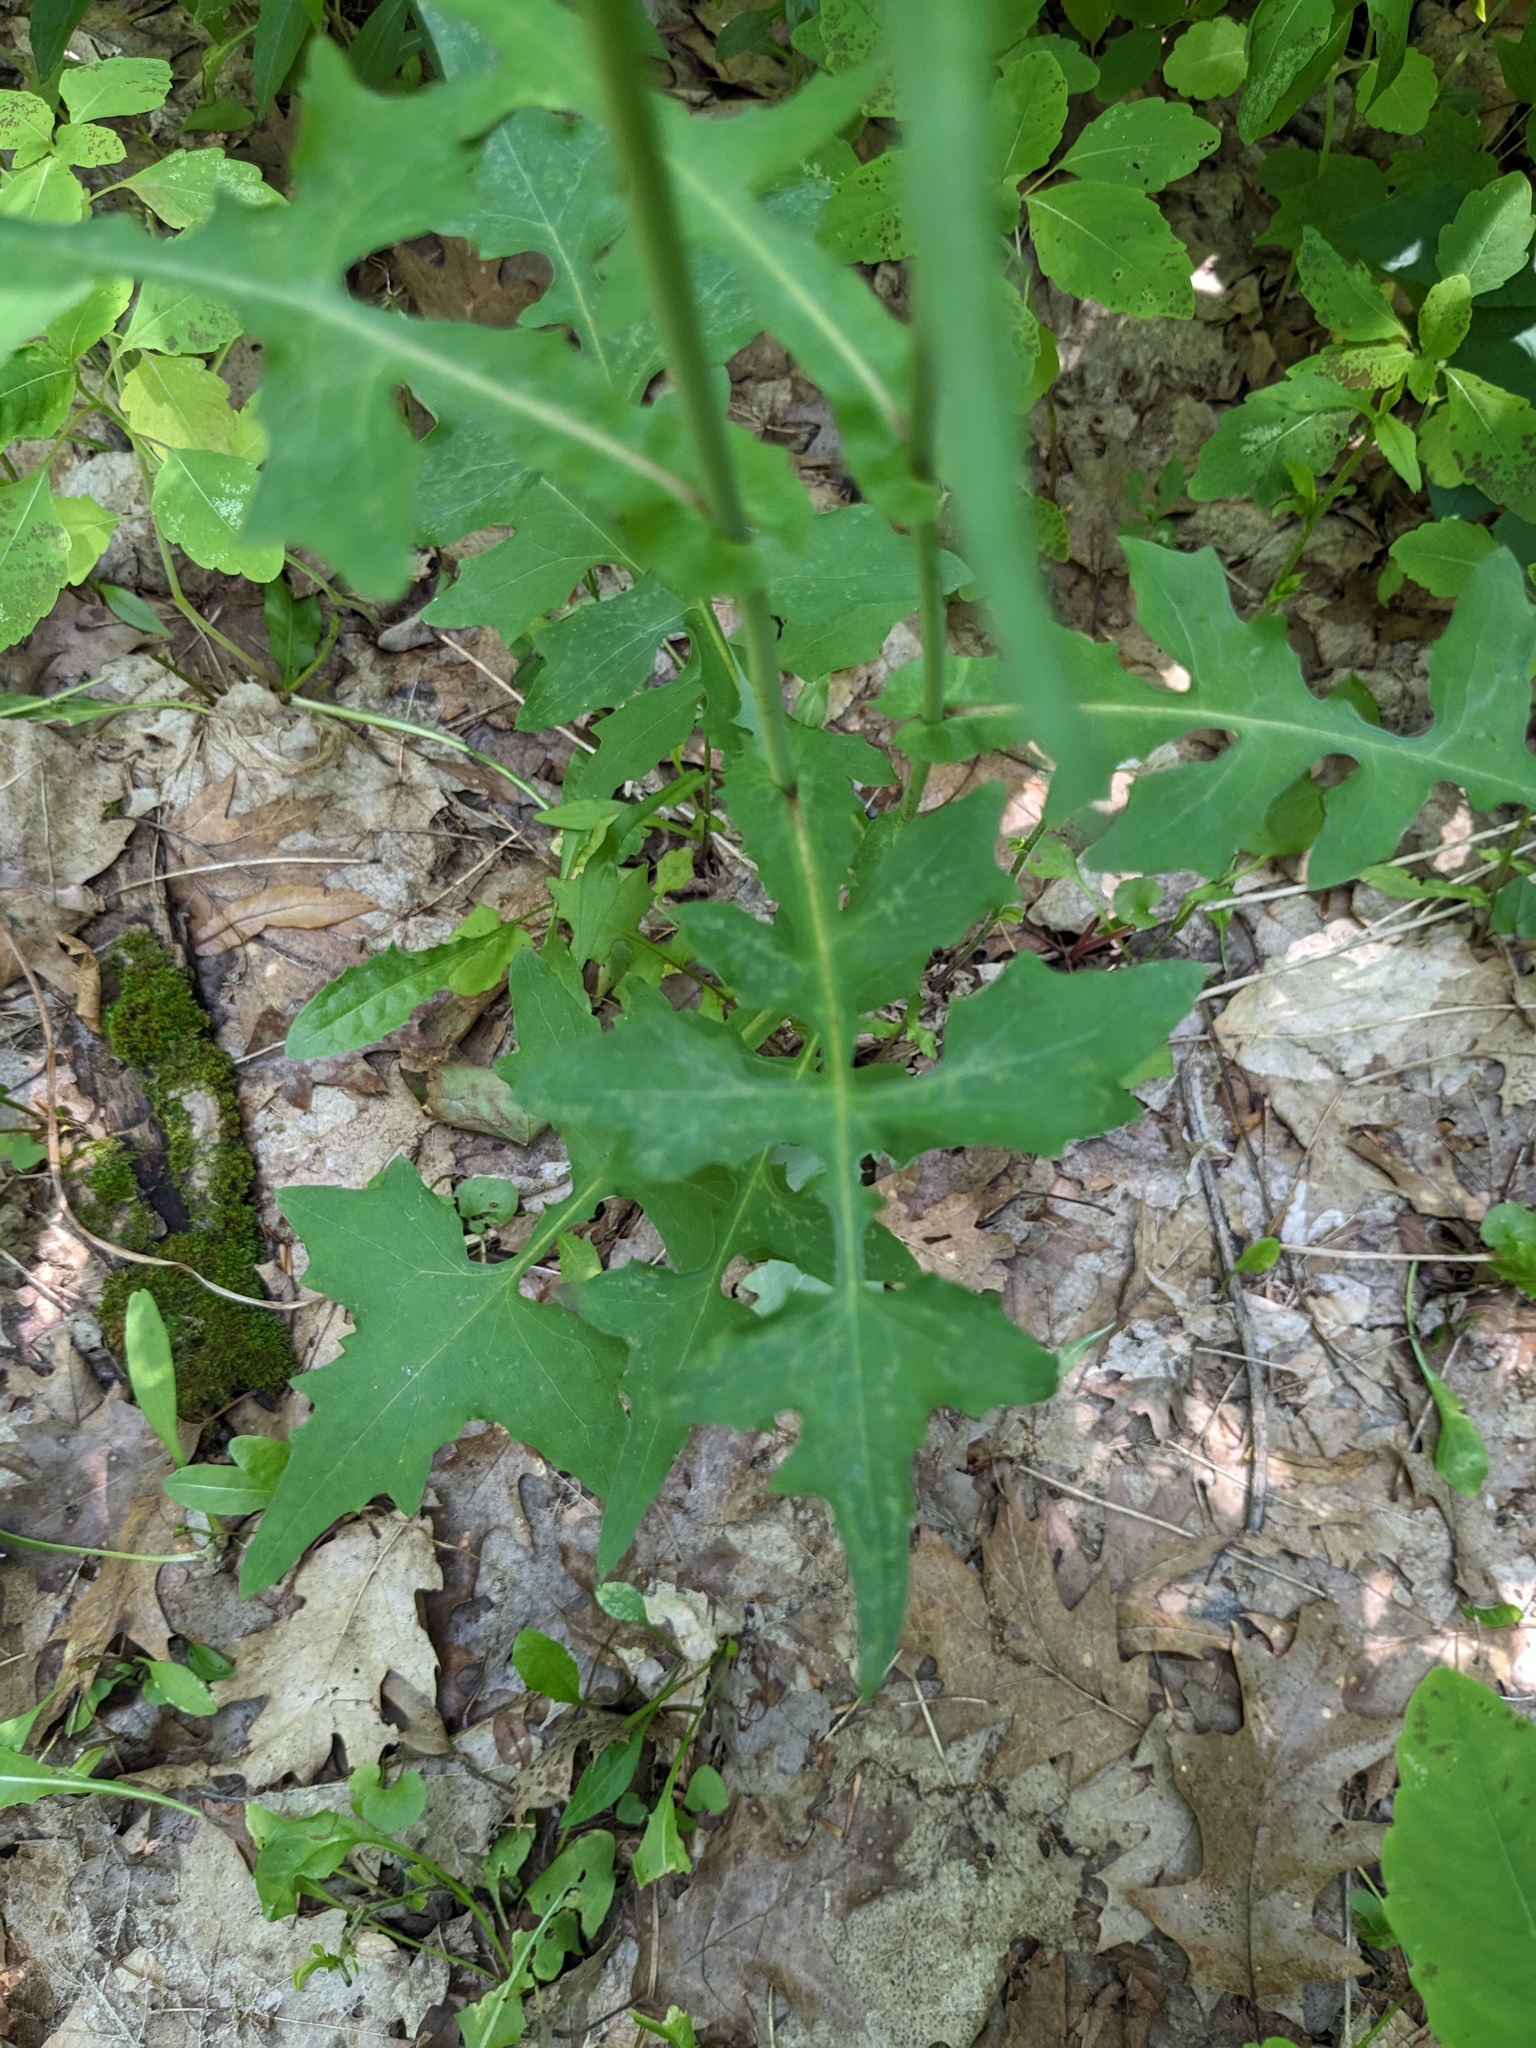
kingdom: Plantae
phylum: Tracheophyta
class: Magnoliopsida
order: Asterales
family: Asteraceae
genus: Mycelis
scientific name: Mycelis muralis
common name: Wall lettuce
